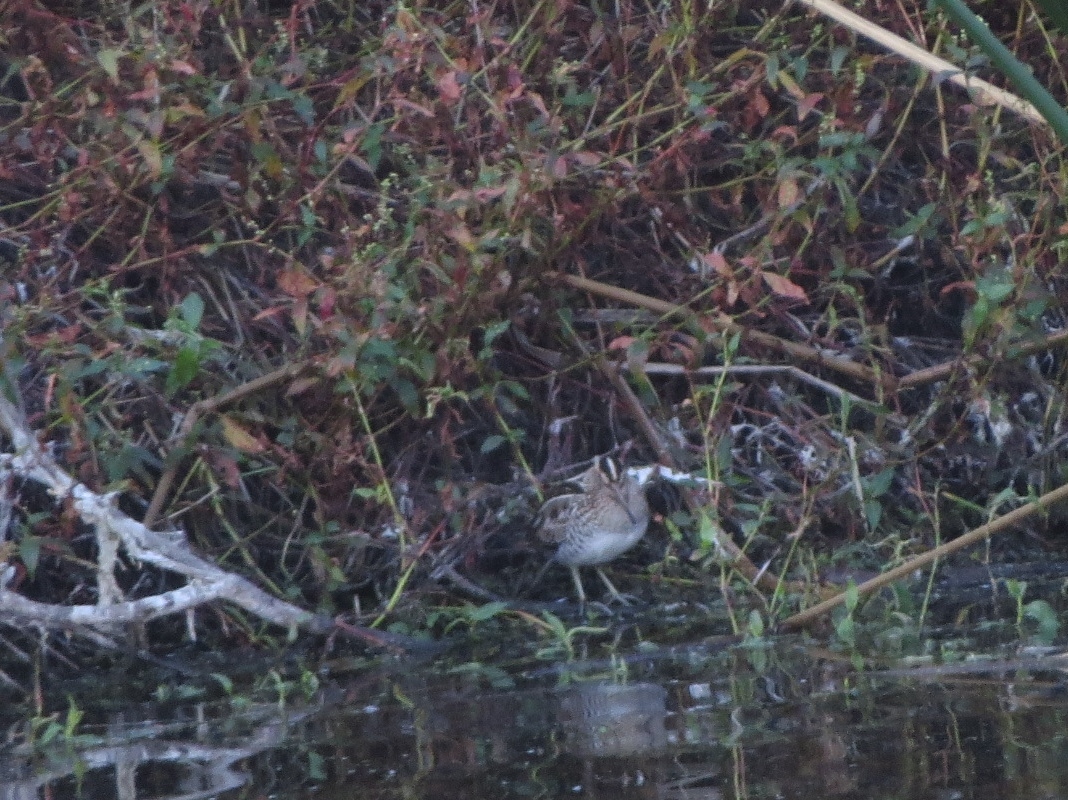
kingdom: Animalia
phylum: Chordata
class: Aves
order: Charadriiformes
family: Scolopacidae
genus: Gallinago
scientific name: Gallinago delicata
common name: Wilson's snipe
